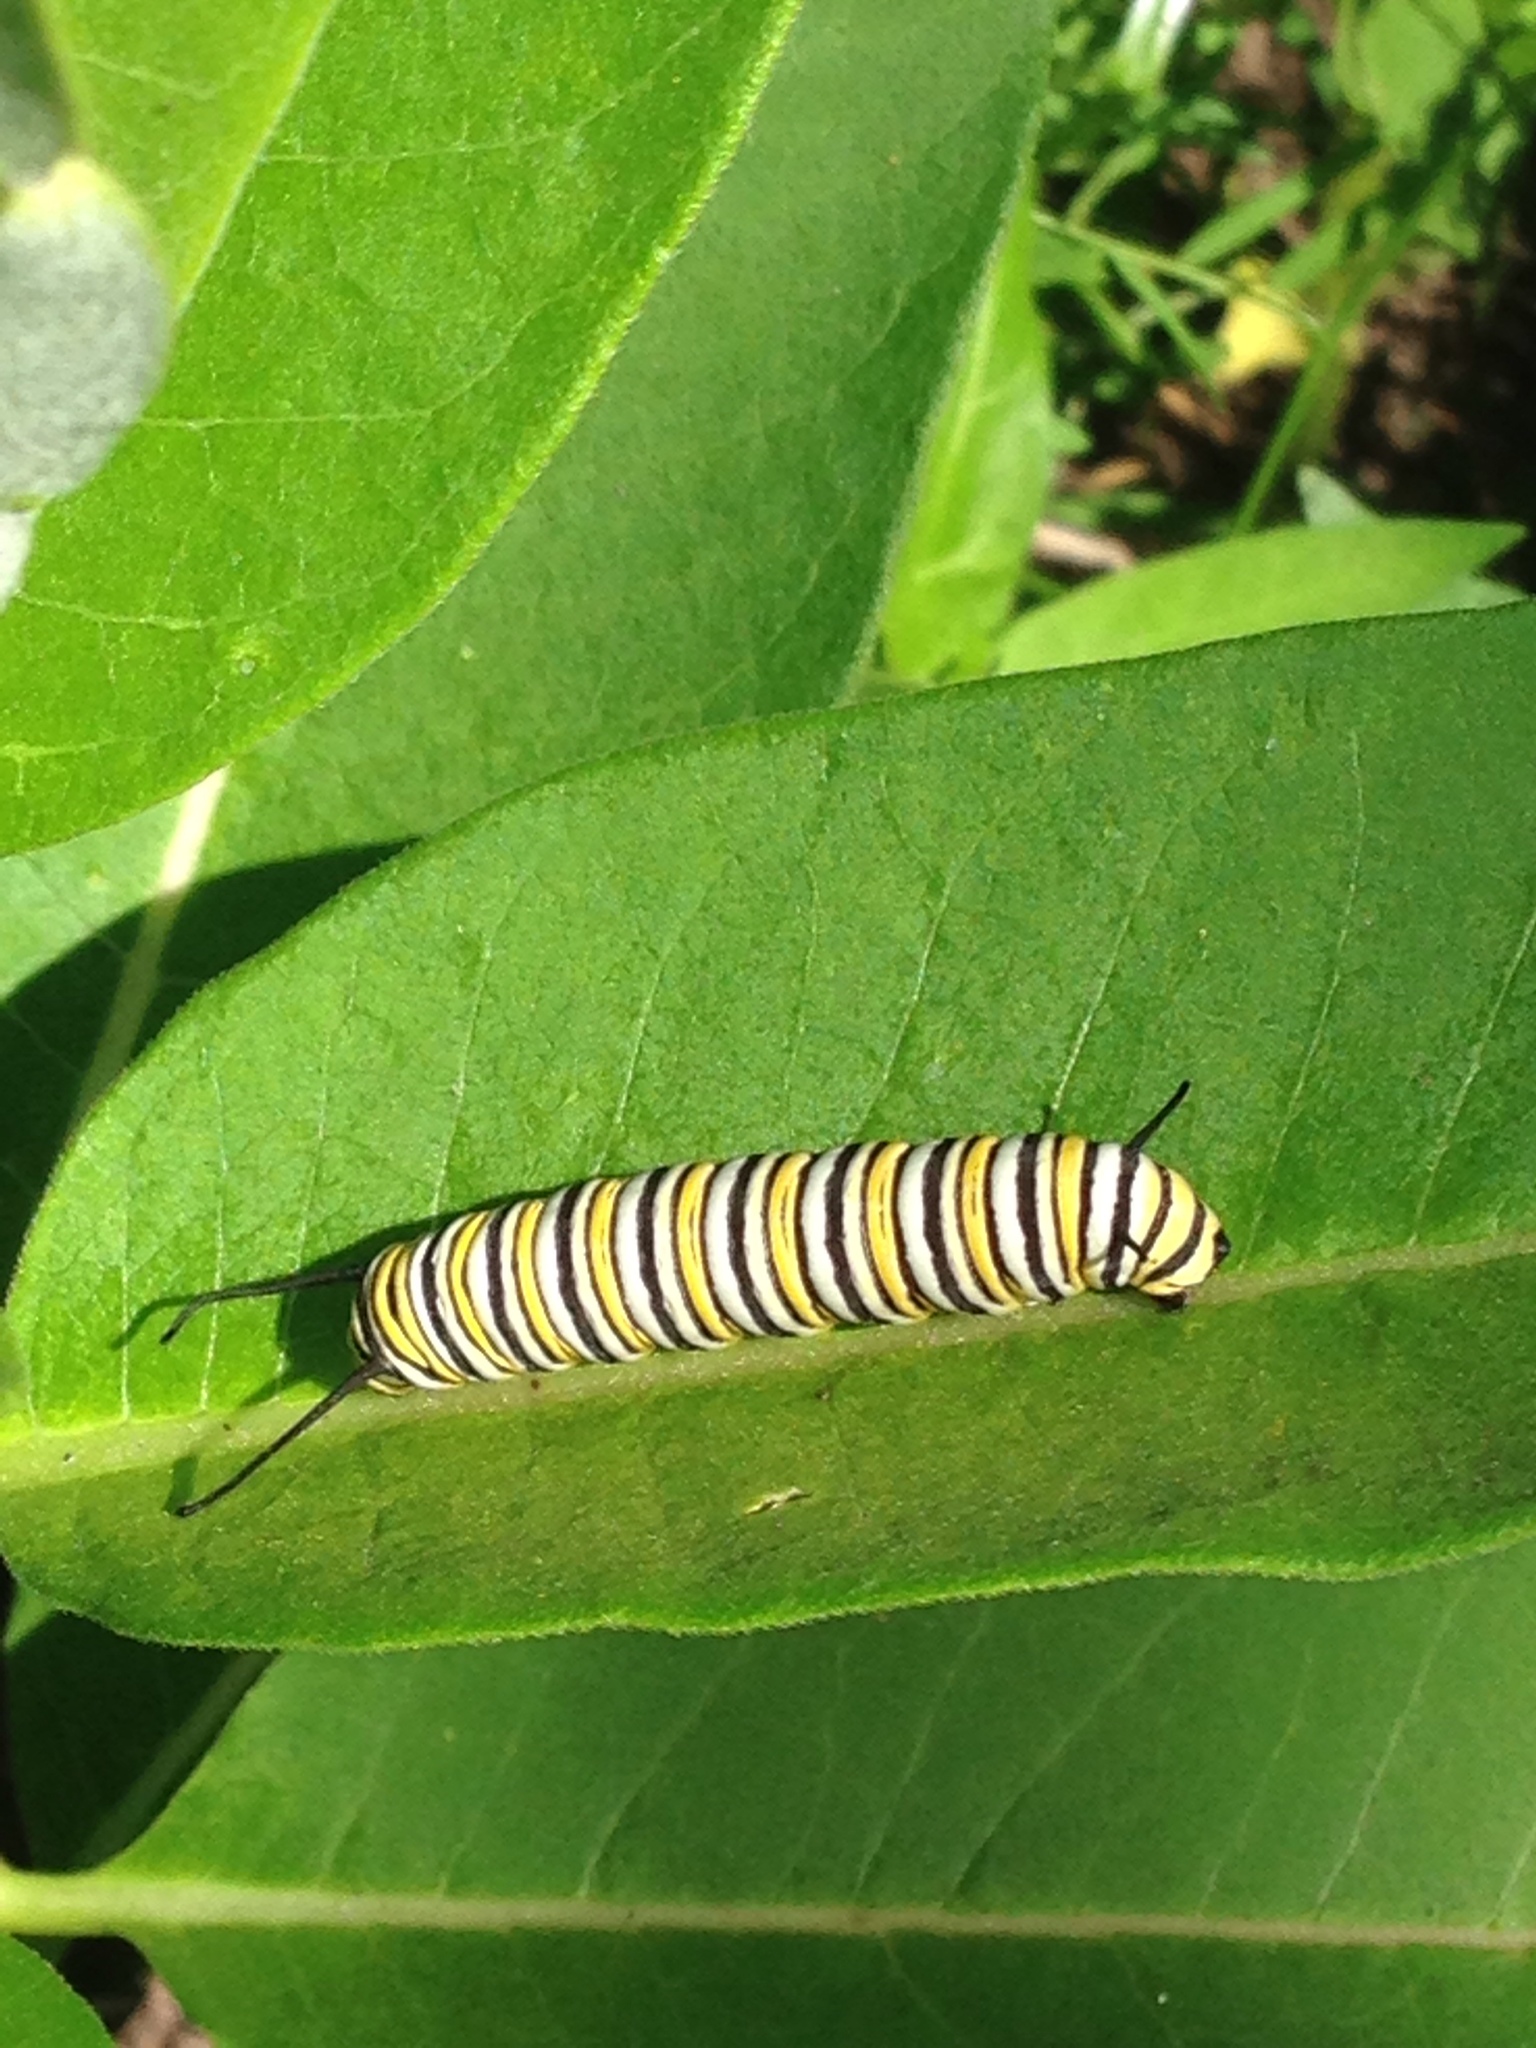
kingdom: Animalia
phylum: Arthropoda
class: Insecta
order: Lepidoptera
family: Nymphalidae
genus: Danaus
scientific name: Danaus plexippus
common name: Monarch
